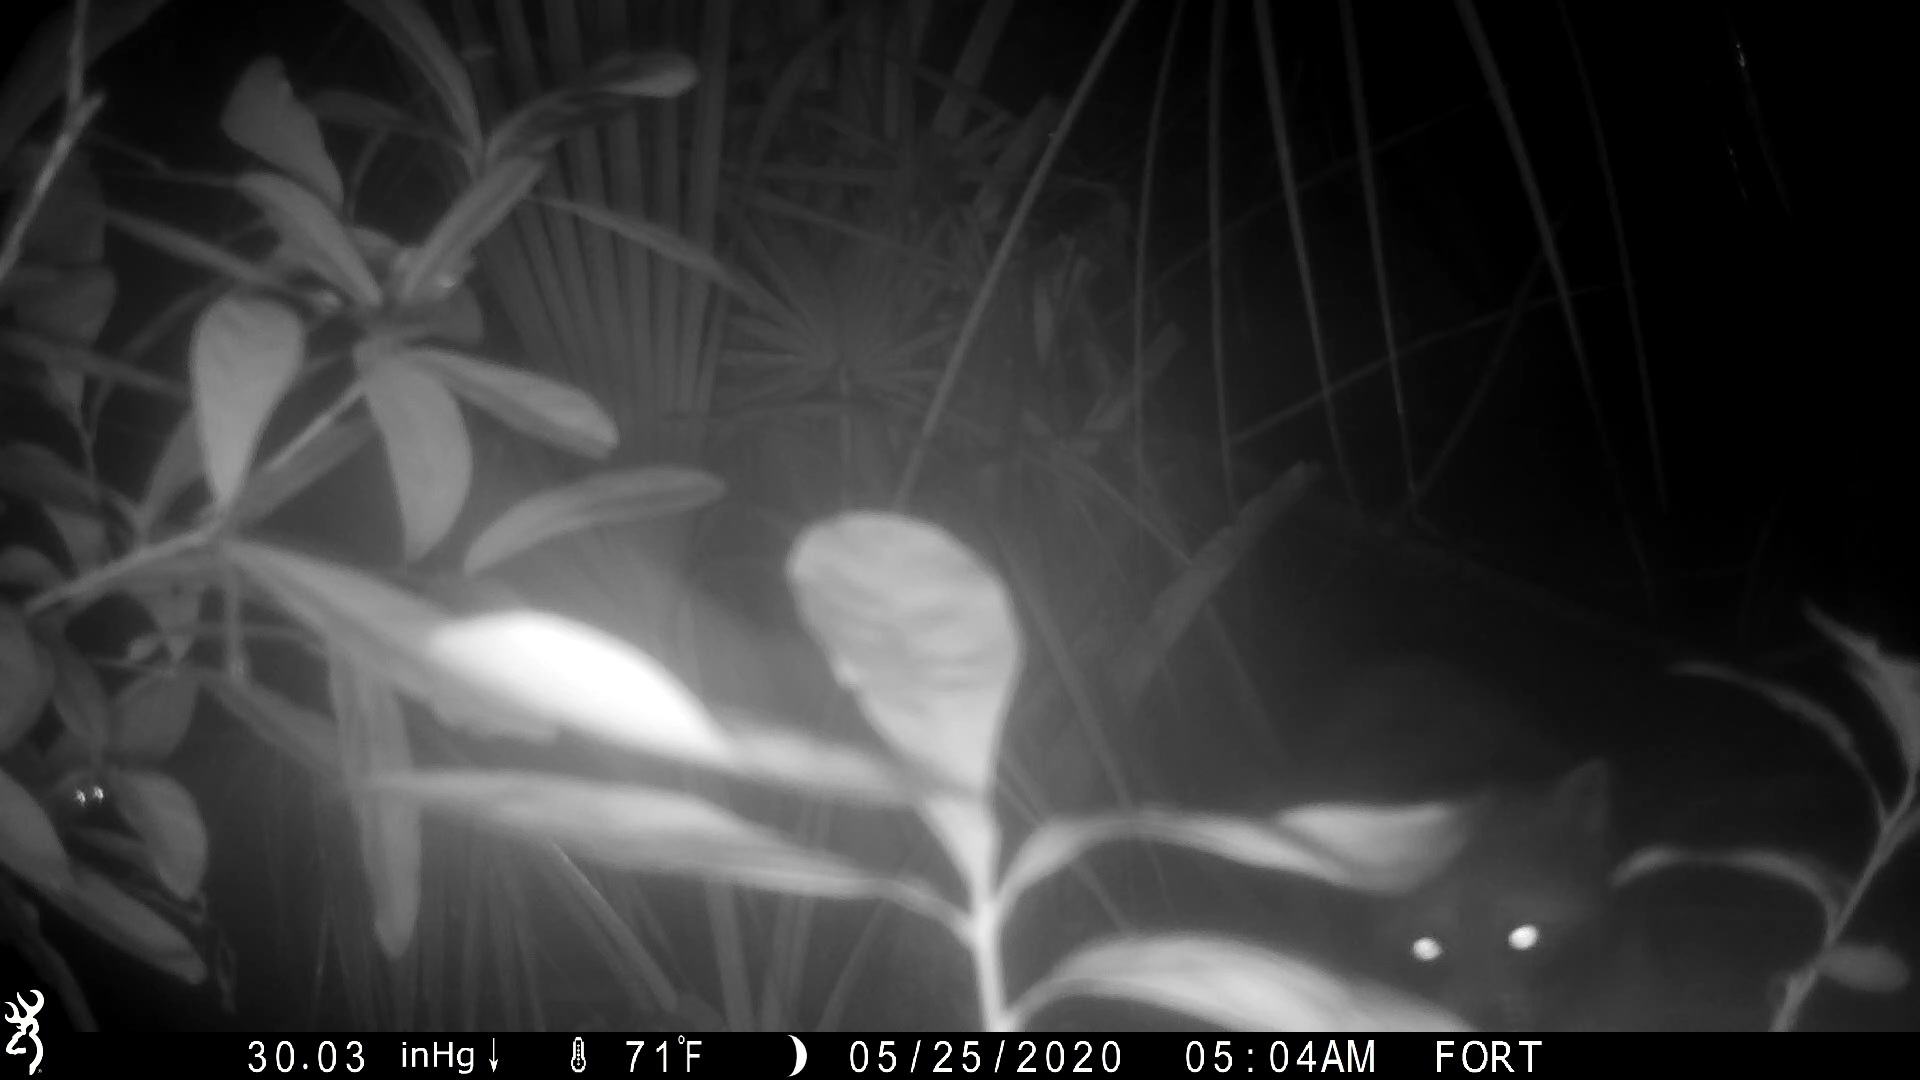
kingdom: Animalia
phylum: Chordata
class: Mammalia
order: Carnivora
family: Procyonidae
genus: Procyon
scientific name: Procyon lotor
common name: Raccoon
